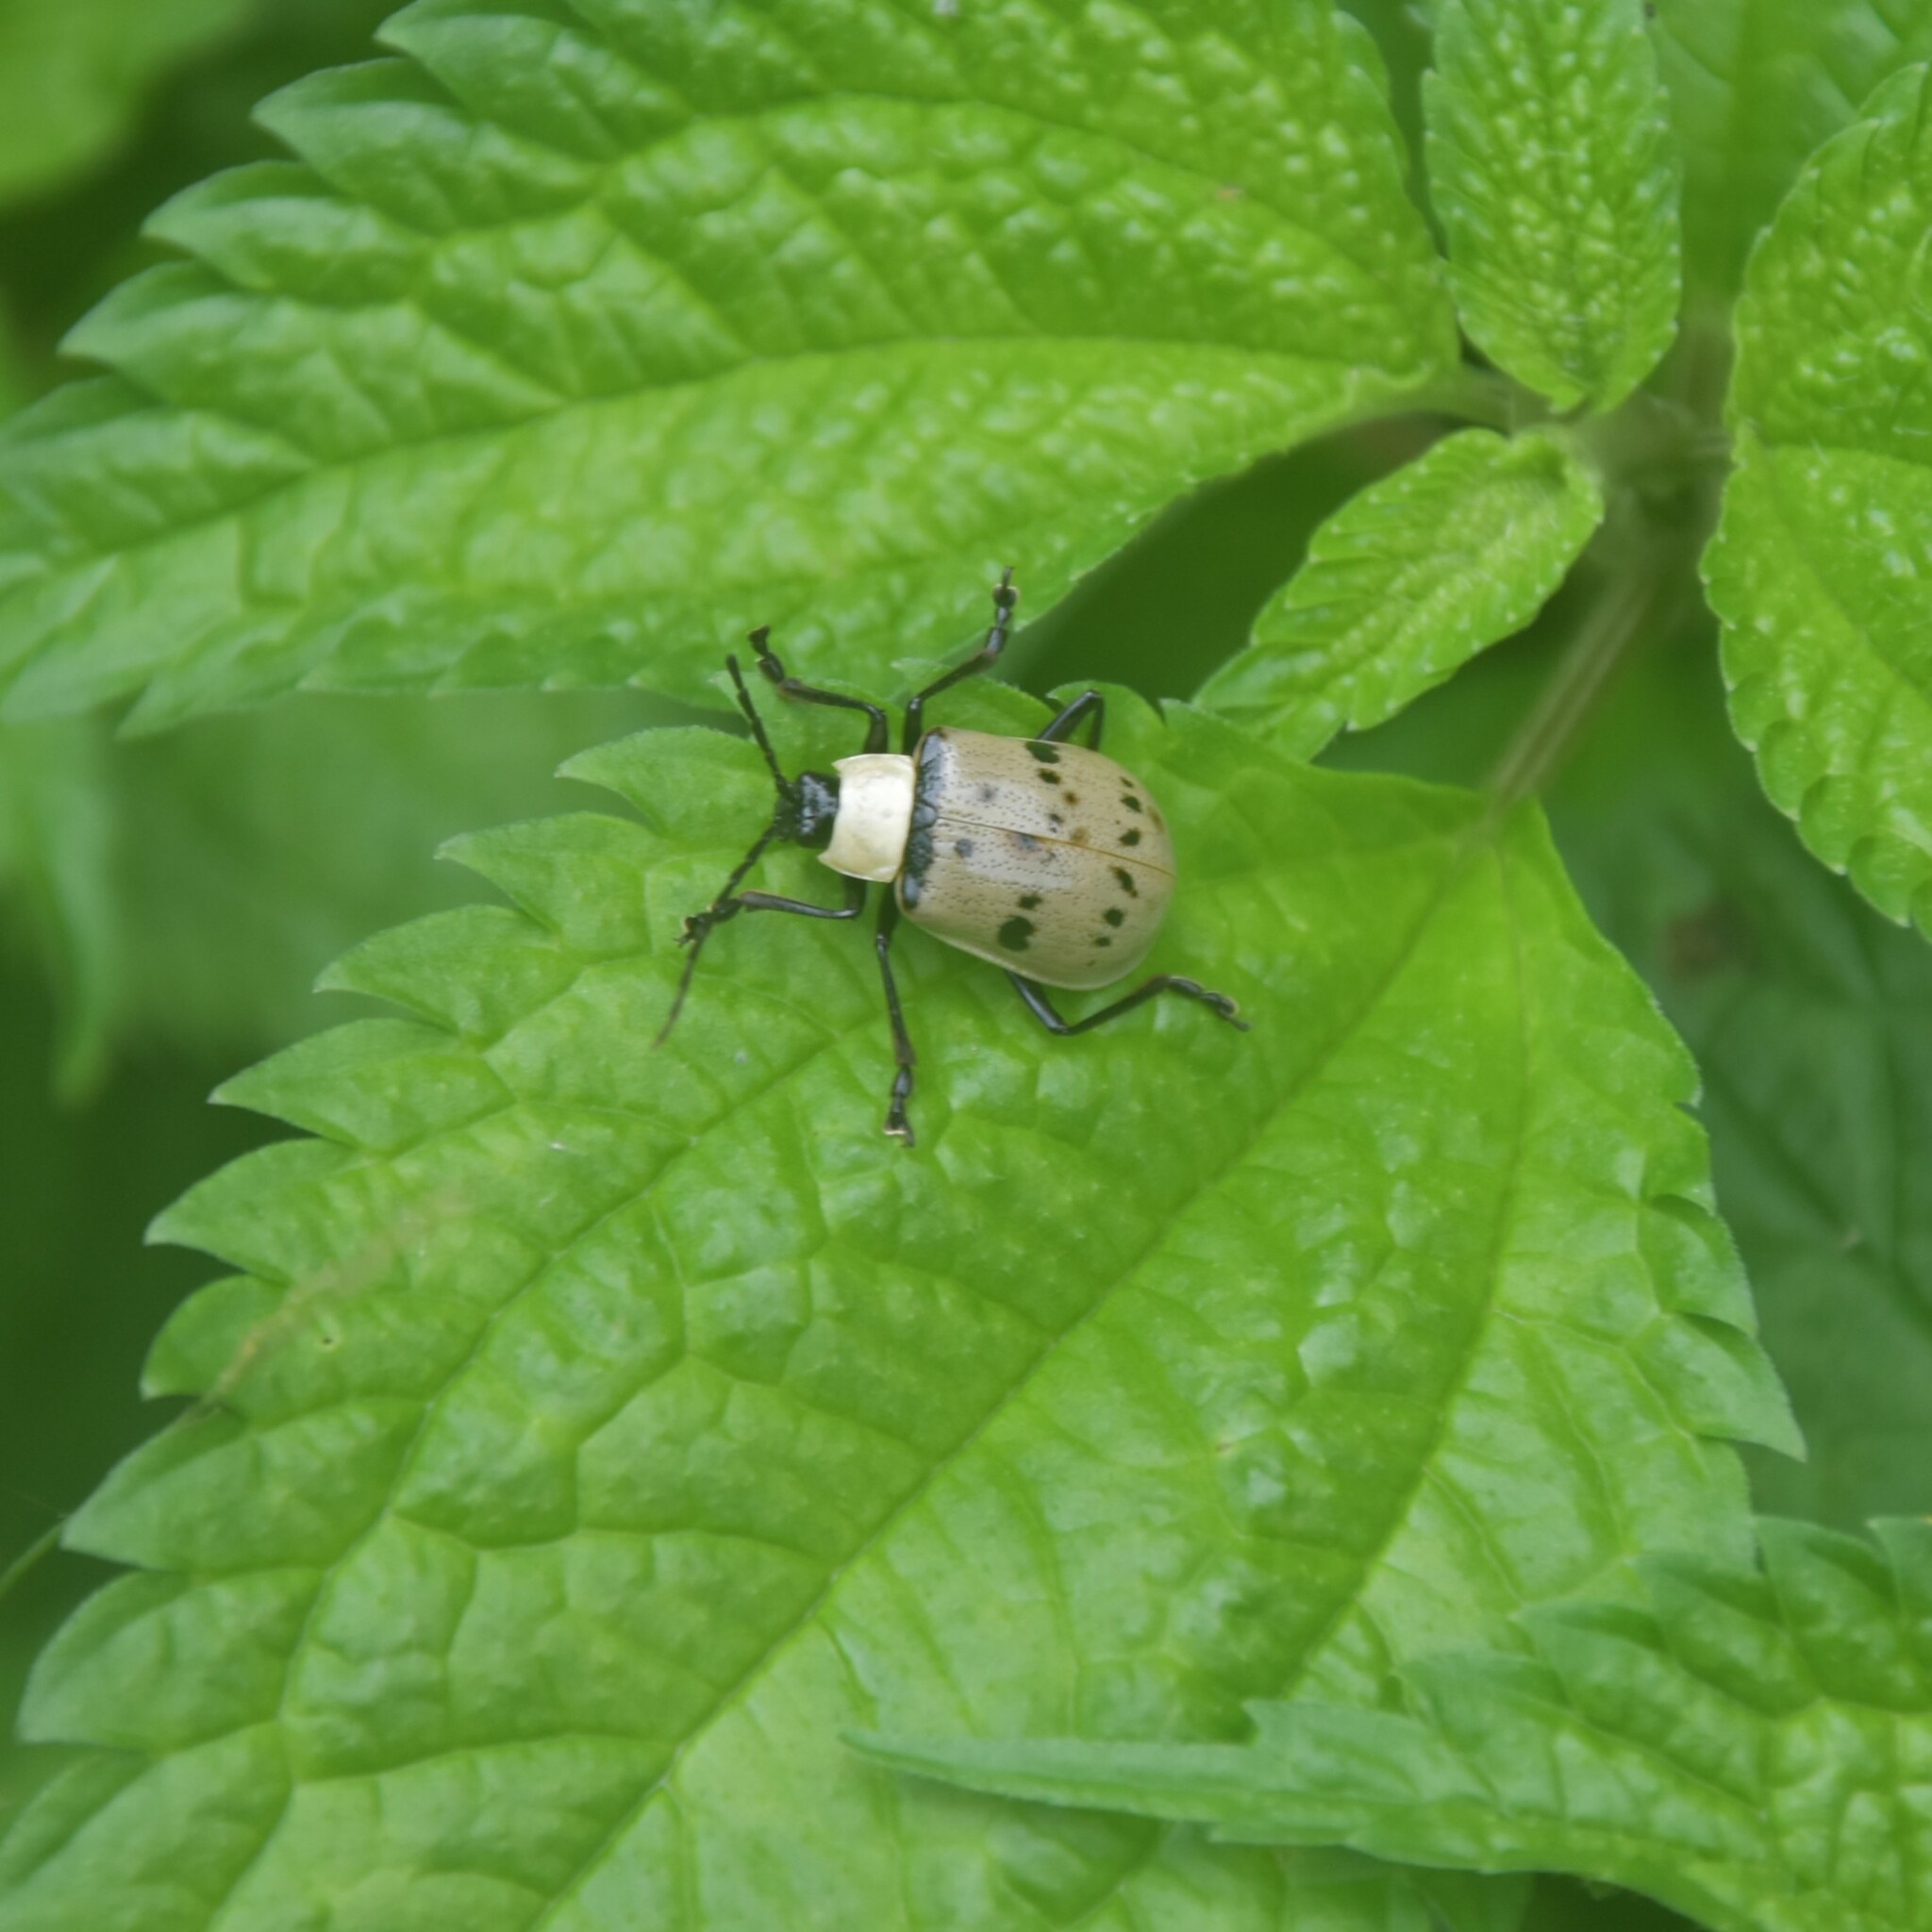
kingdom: Animalia
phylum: Arthropoda
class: Insecta
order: Coleoptera
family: Chrysomelidae
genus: Meristata
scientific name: Meristata
